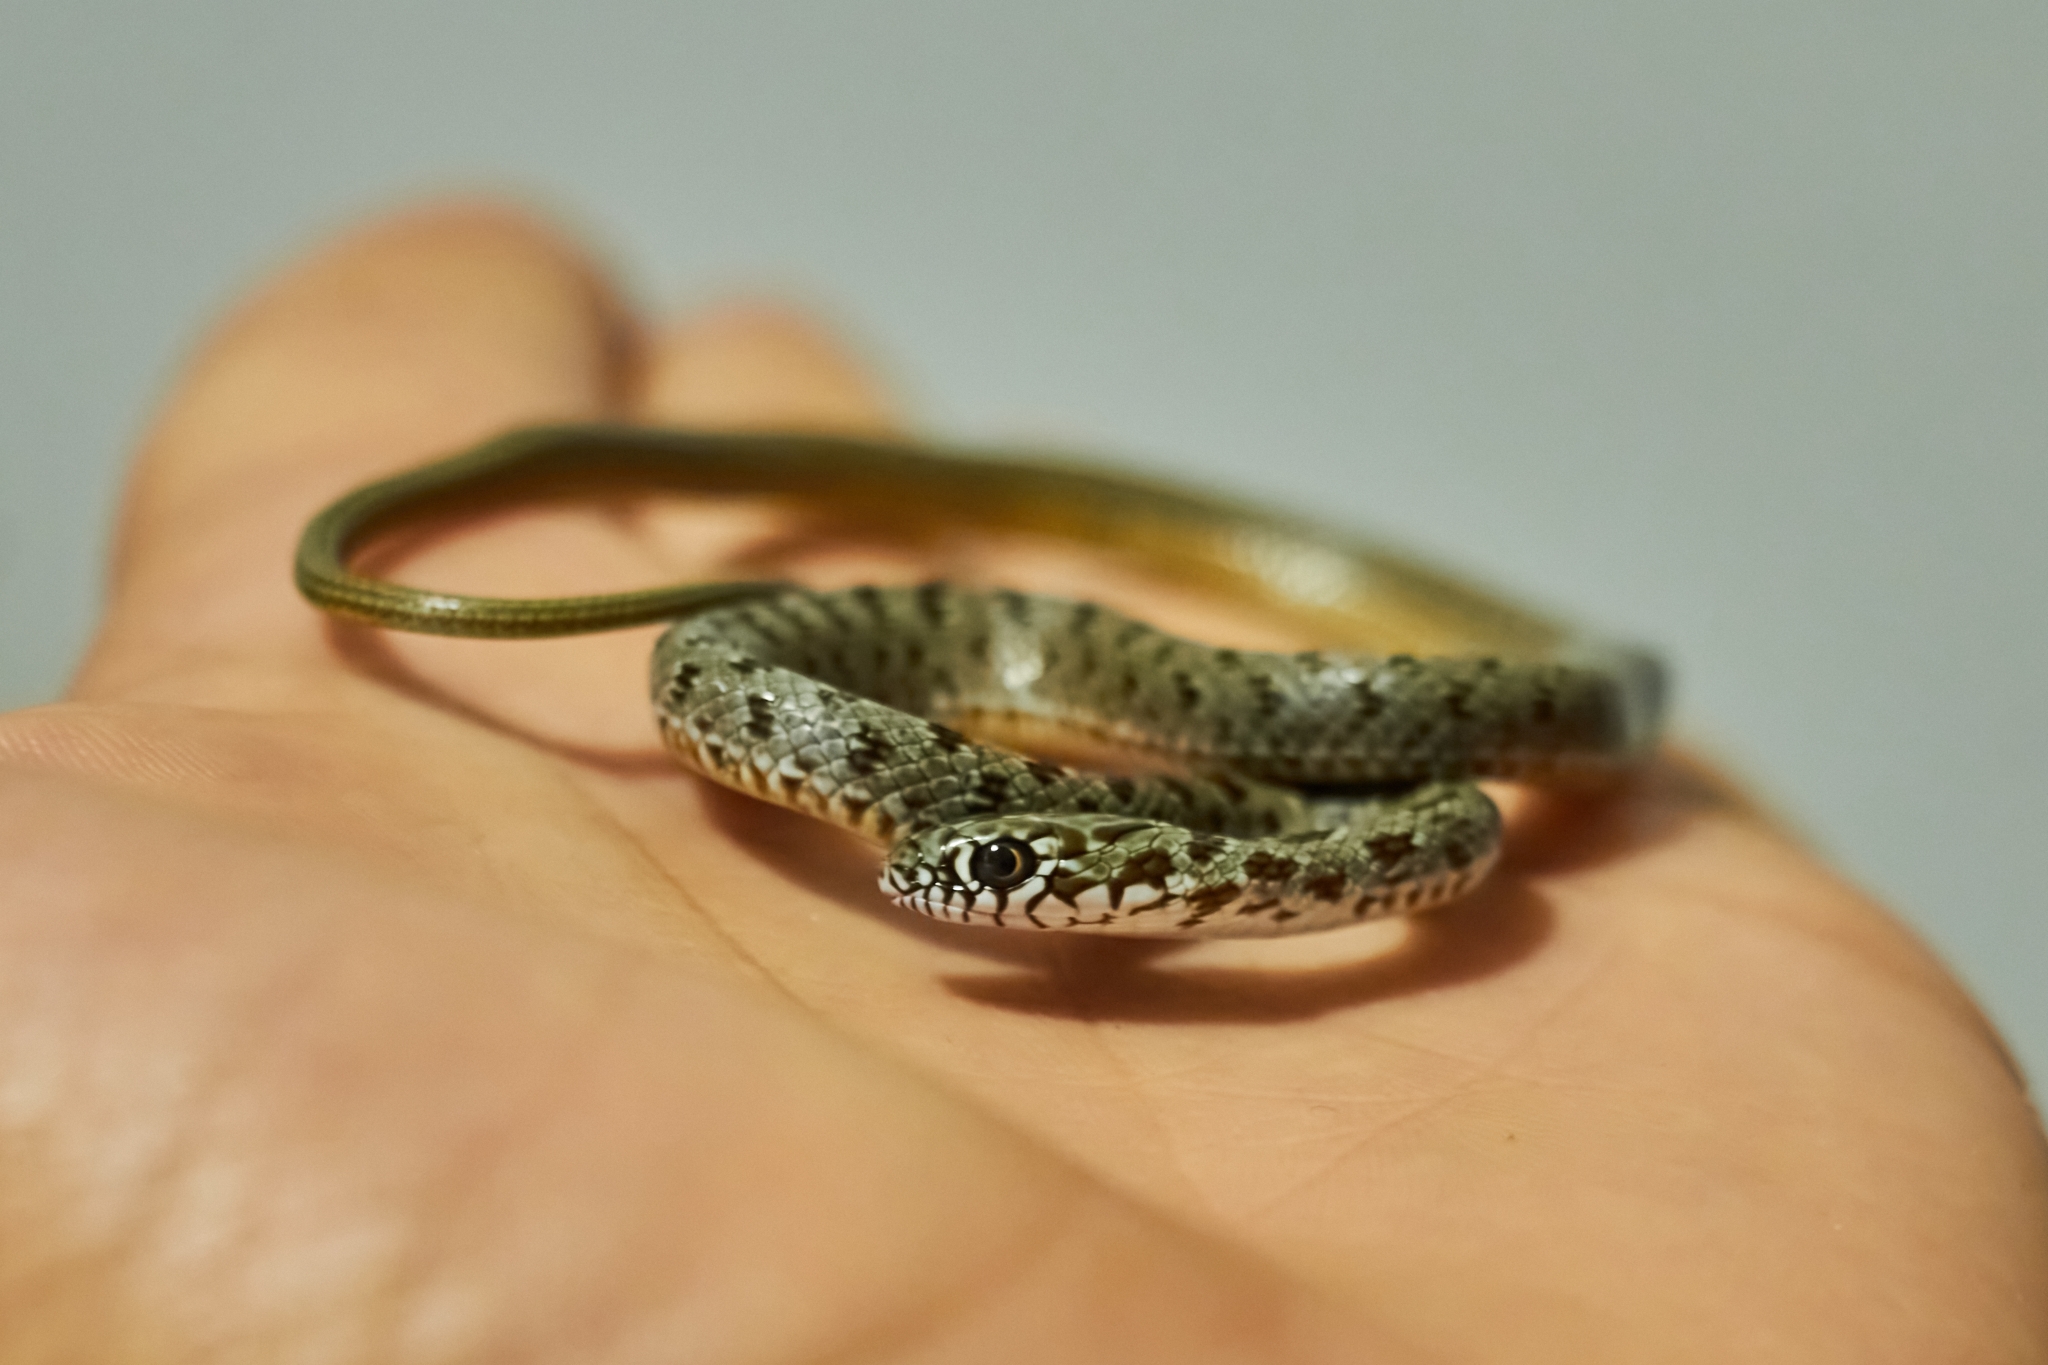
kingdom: Animalia
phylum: Chordata
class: Squamata
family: Colubridae
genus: Dolichophis
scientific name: Dolichophis caspius
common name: Large whip snake
